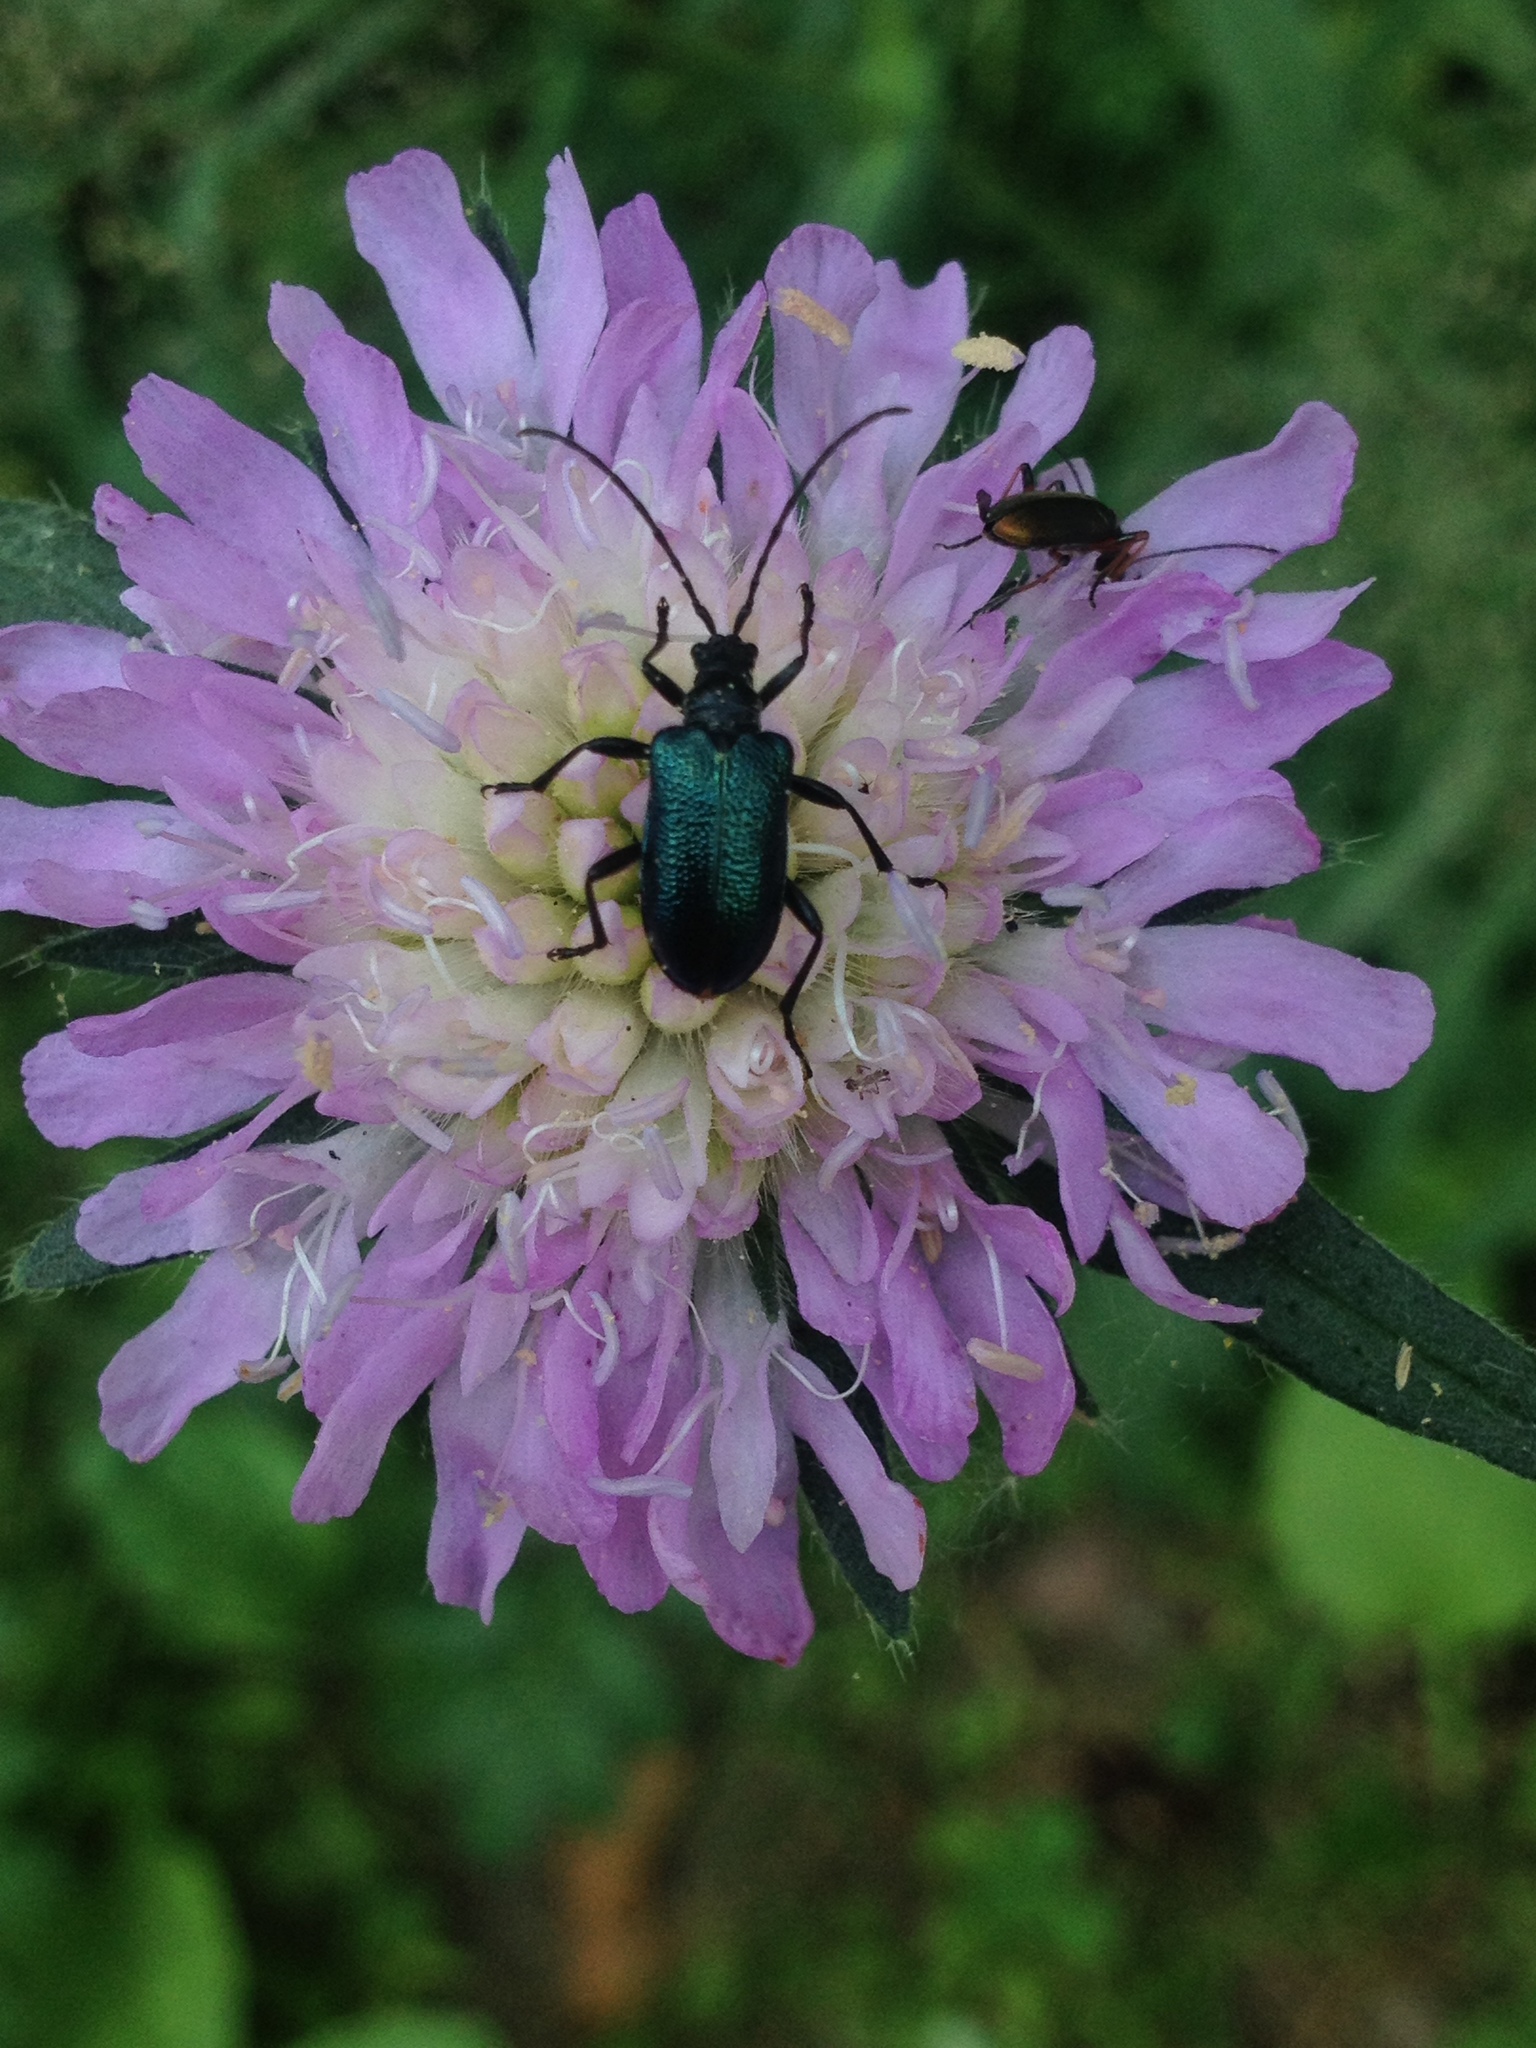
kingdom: Animalia
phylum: Arthropoda
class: Insecta
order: Coleoptera
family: Cerambycidae
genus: Gaurotes
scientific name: Gaurotes virginea
